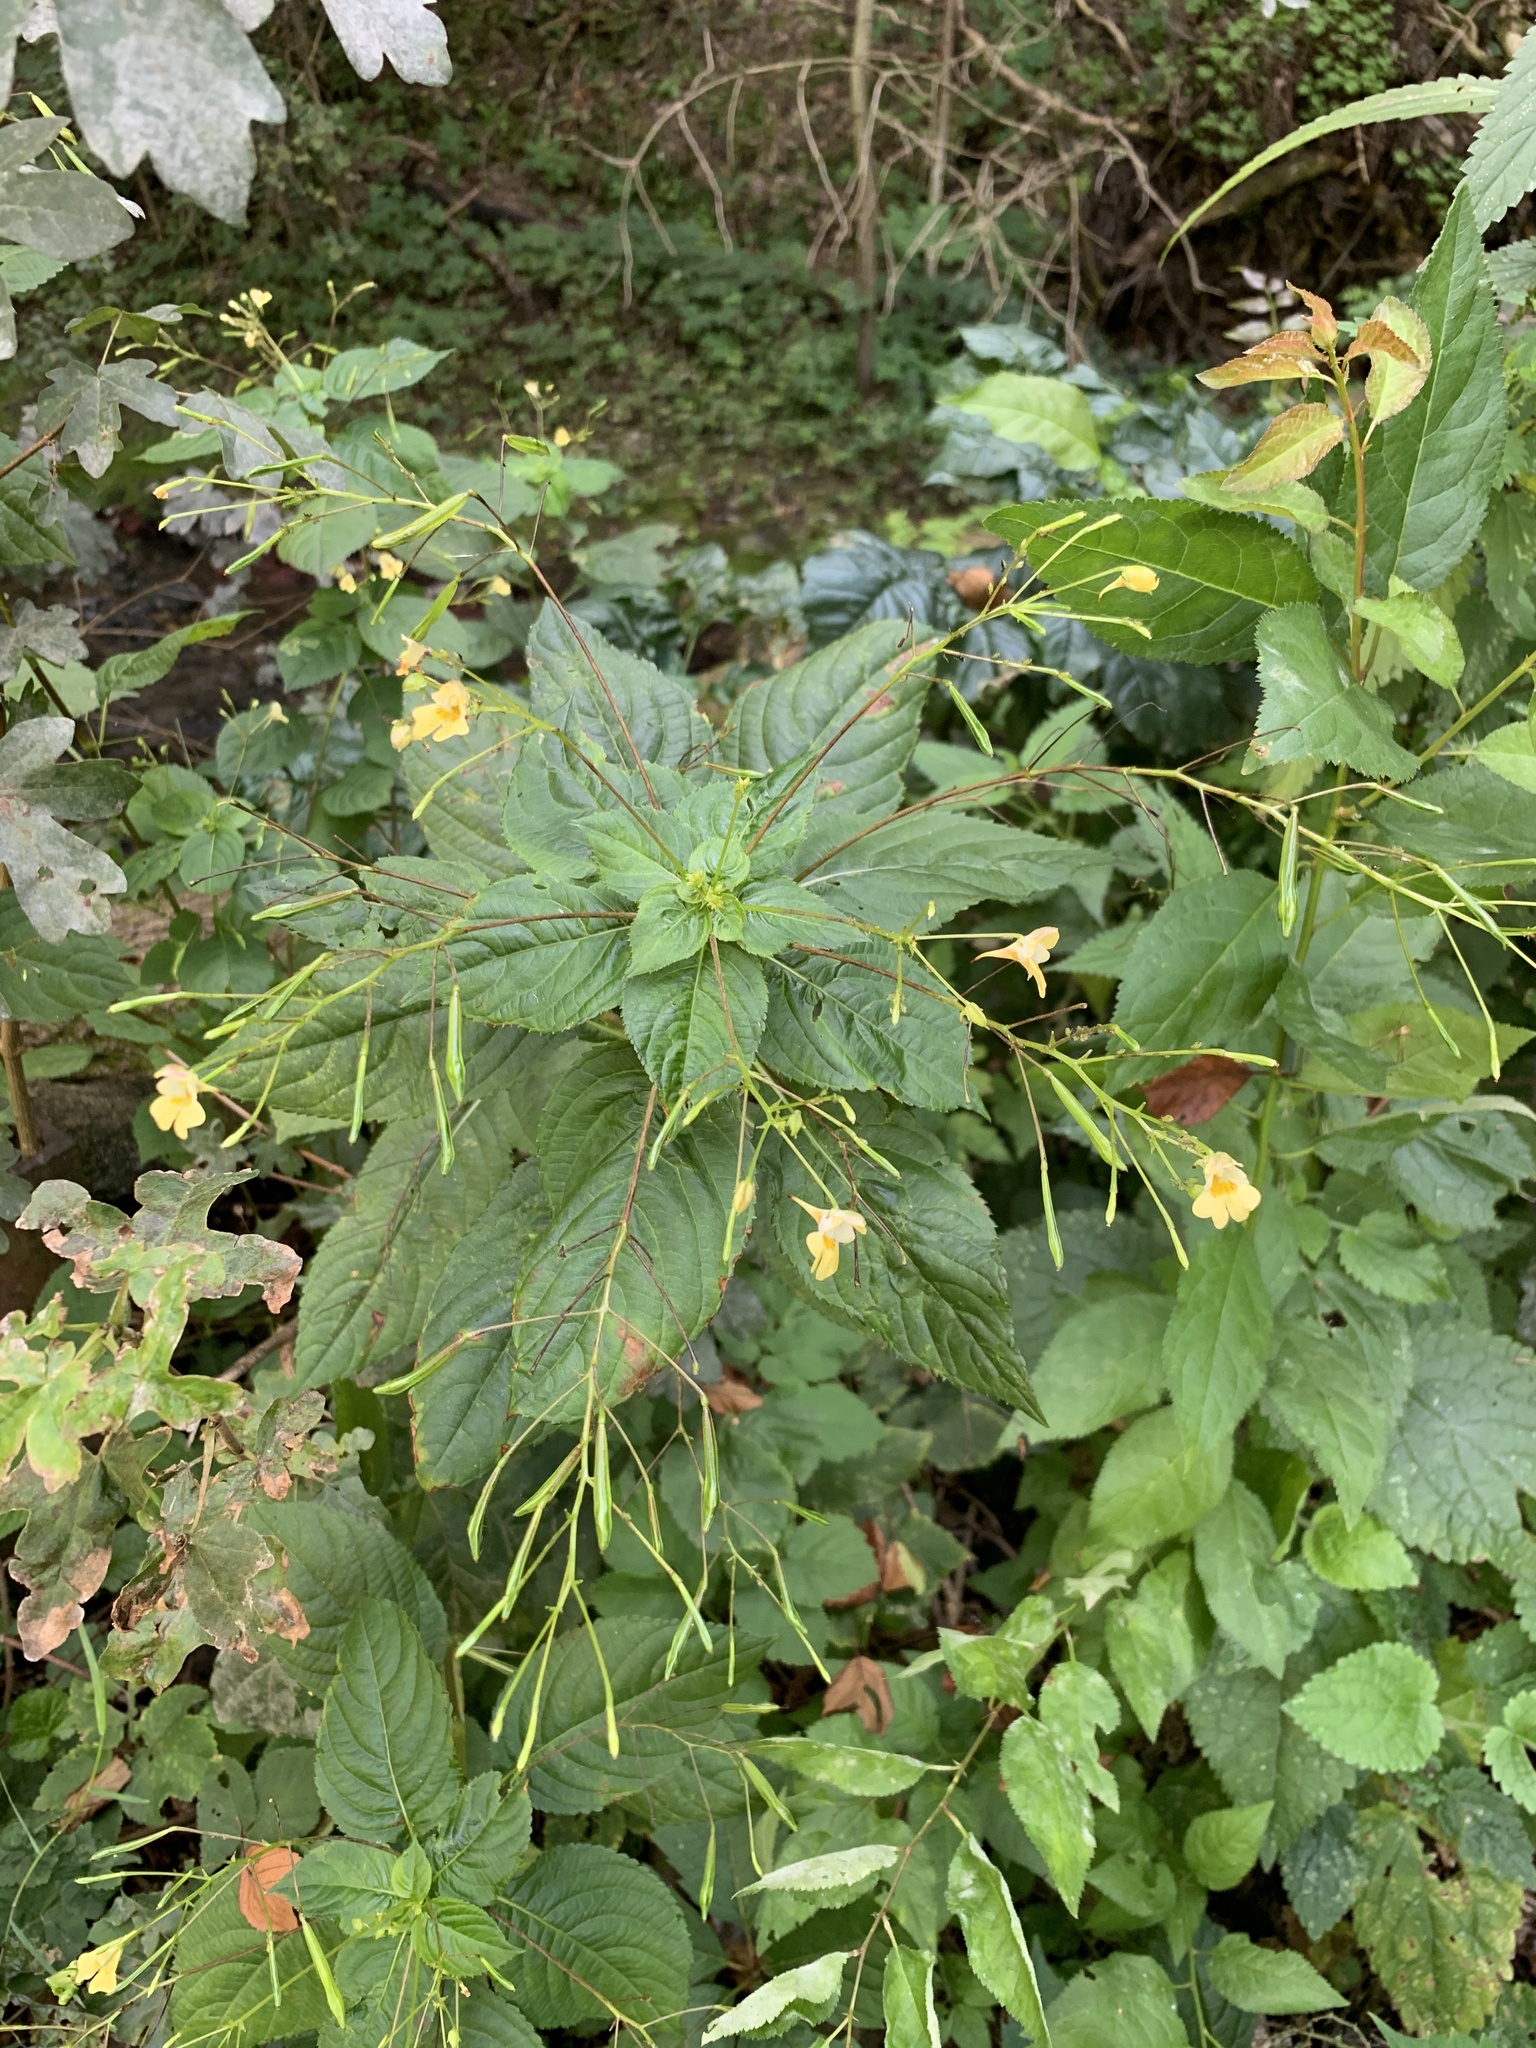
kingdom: Plantae
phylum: Tracheophyta
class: Magnoliopsida
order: Ericales
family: Balsaminaceae
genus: Impatiens
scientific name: Impatiens parviflora
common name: Small balsam
